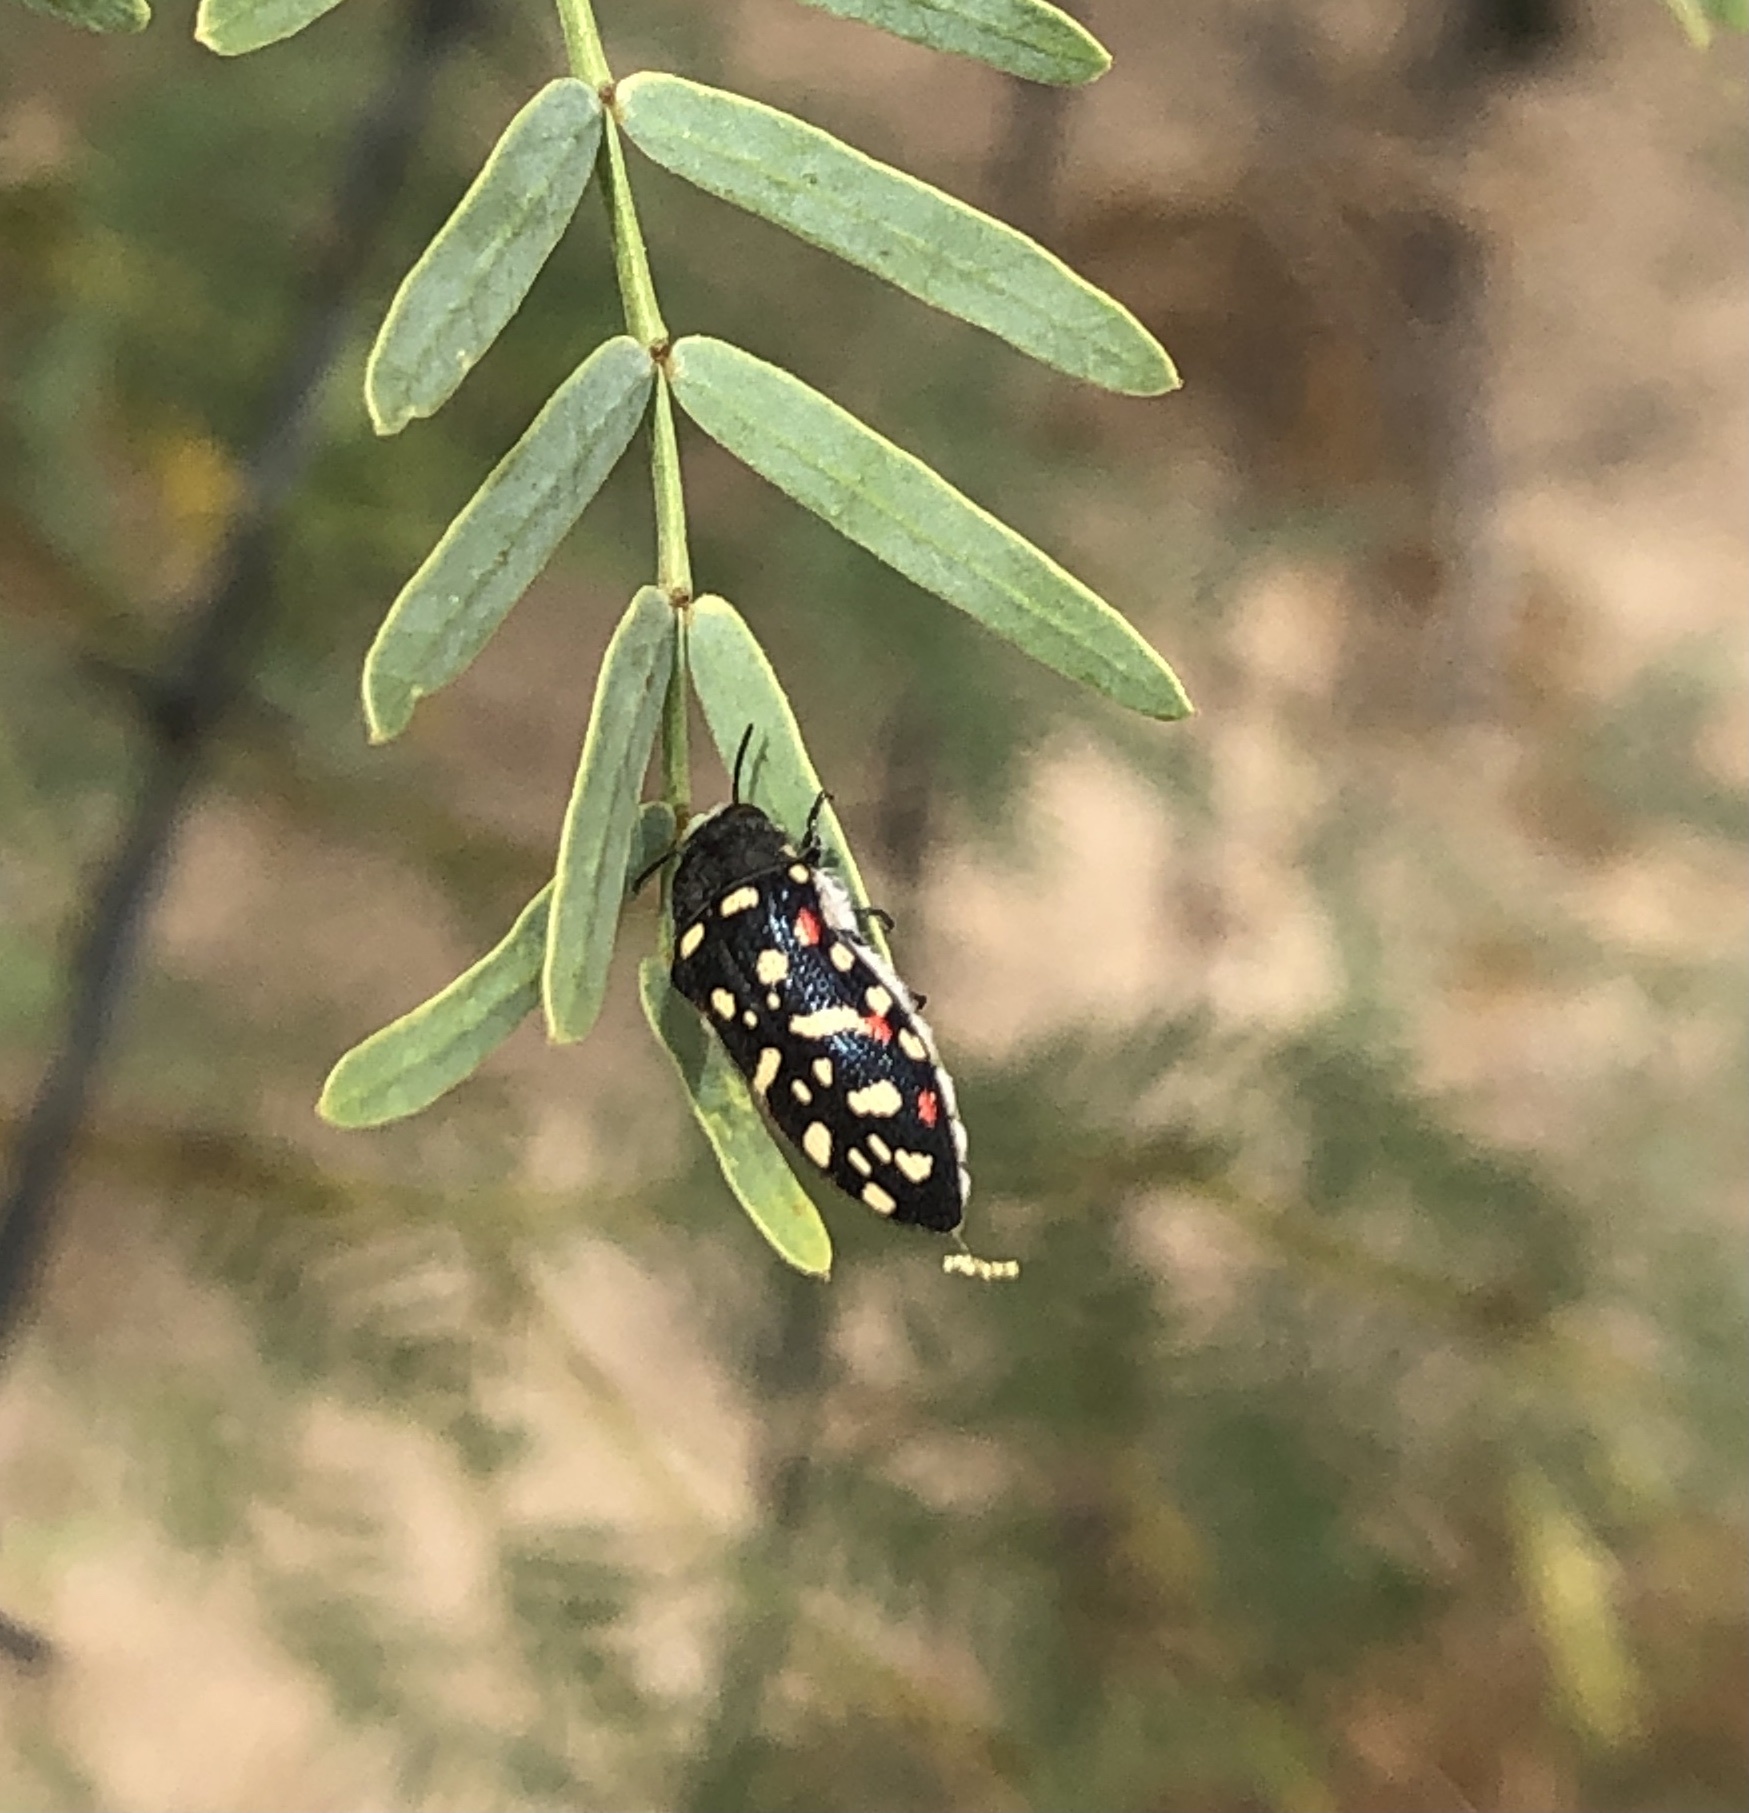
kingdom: Animalia
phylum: Arthropoda
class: Insecta
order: Coleoptera
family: Buprestidae
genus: Acmaeodera
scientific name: Acmaeodera gibbula
